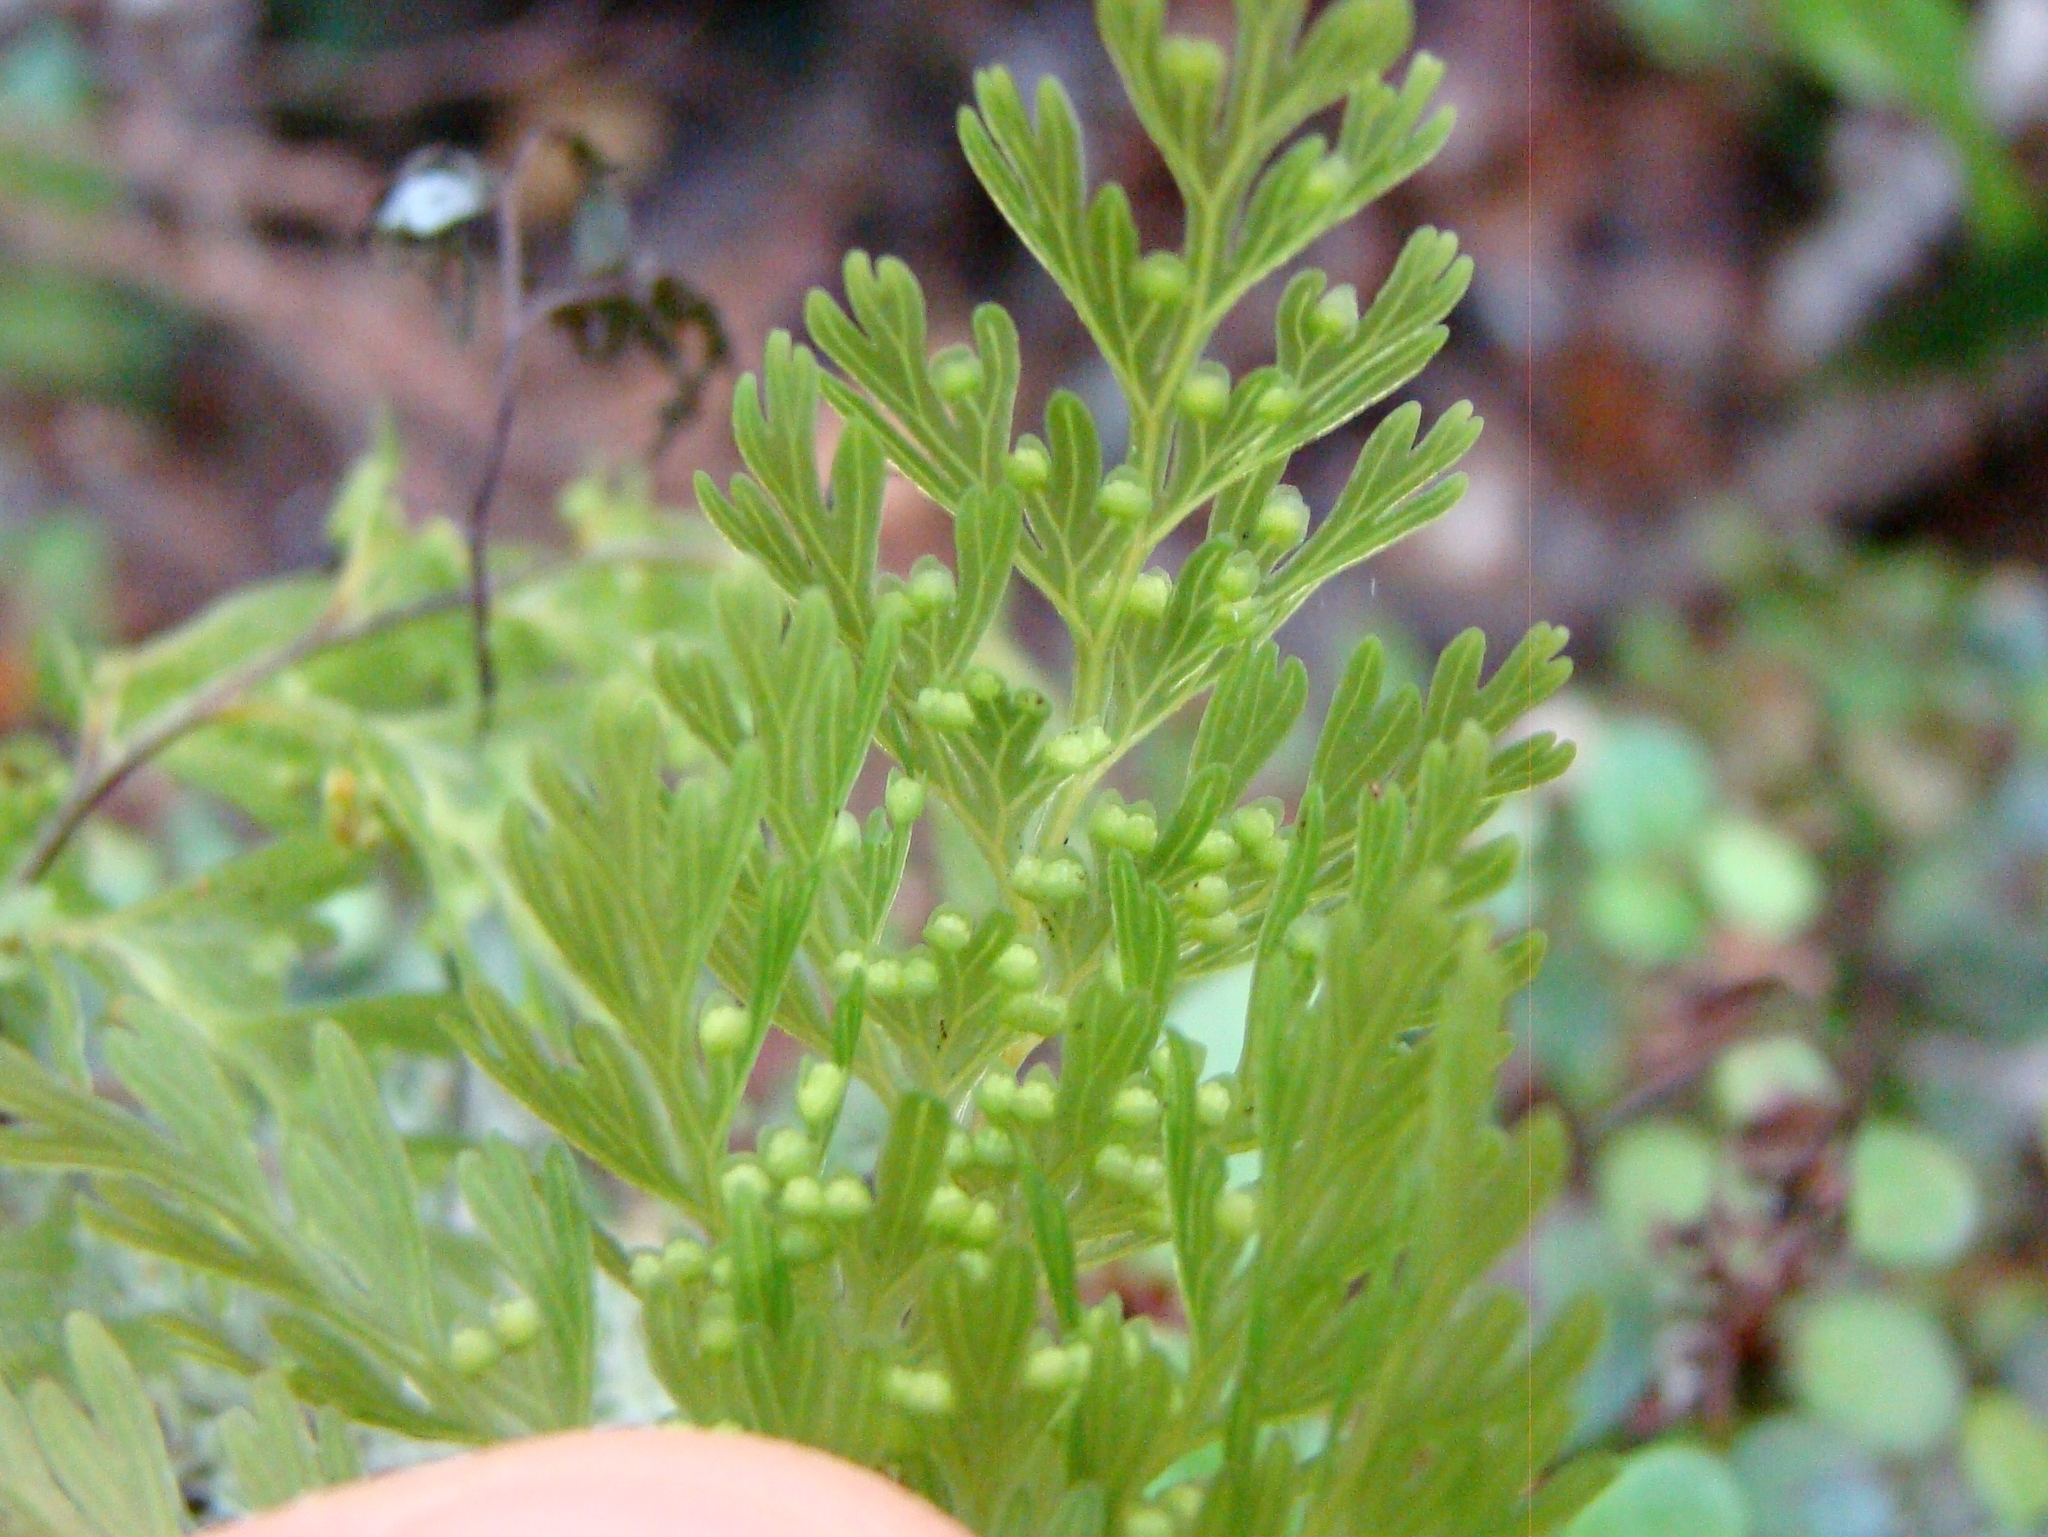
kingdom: Plantae
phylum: Tracheophyta
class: Polypodiopsida
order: Hymenophyllales
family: Hymenophyllaceae
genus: Hymenophyllum
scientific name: Hymenophyllum demissum
